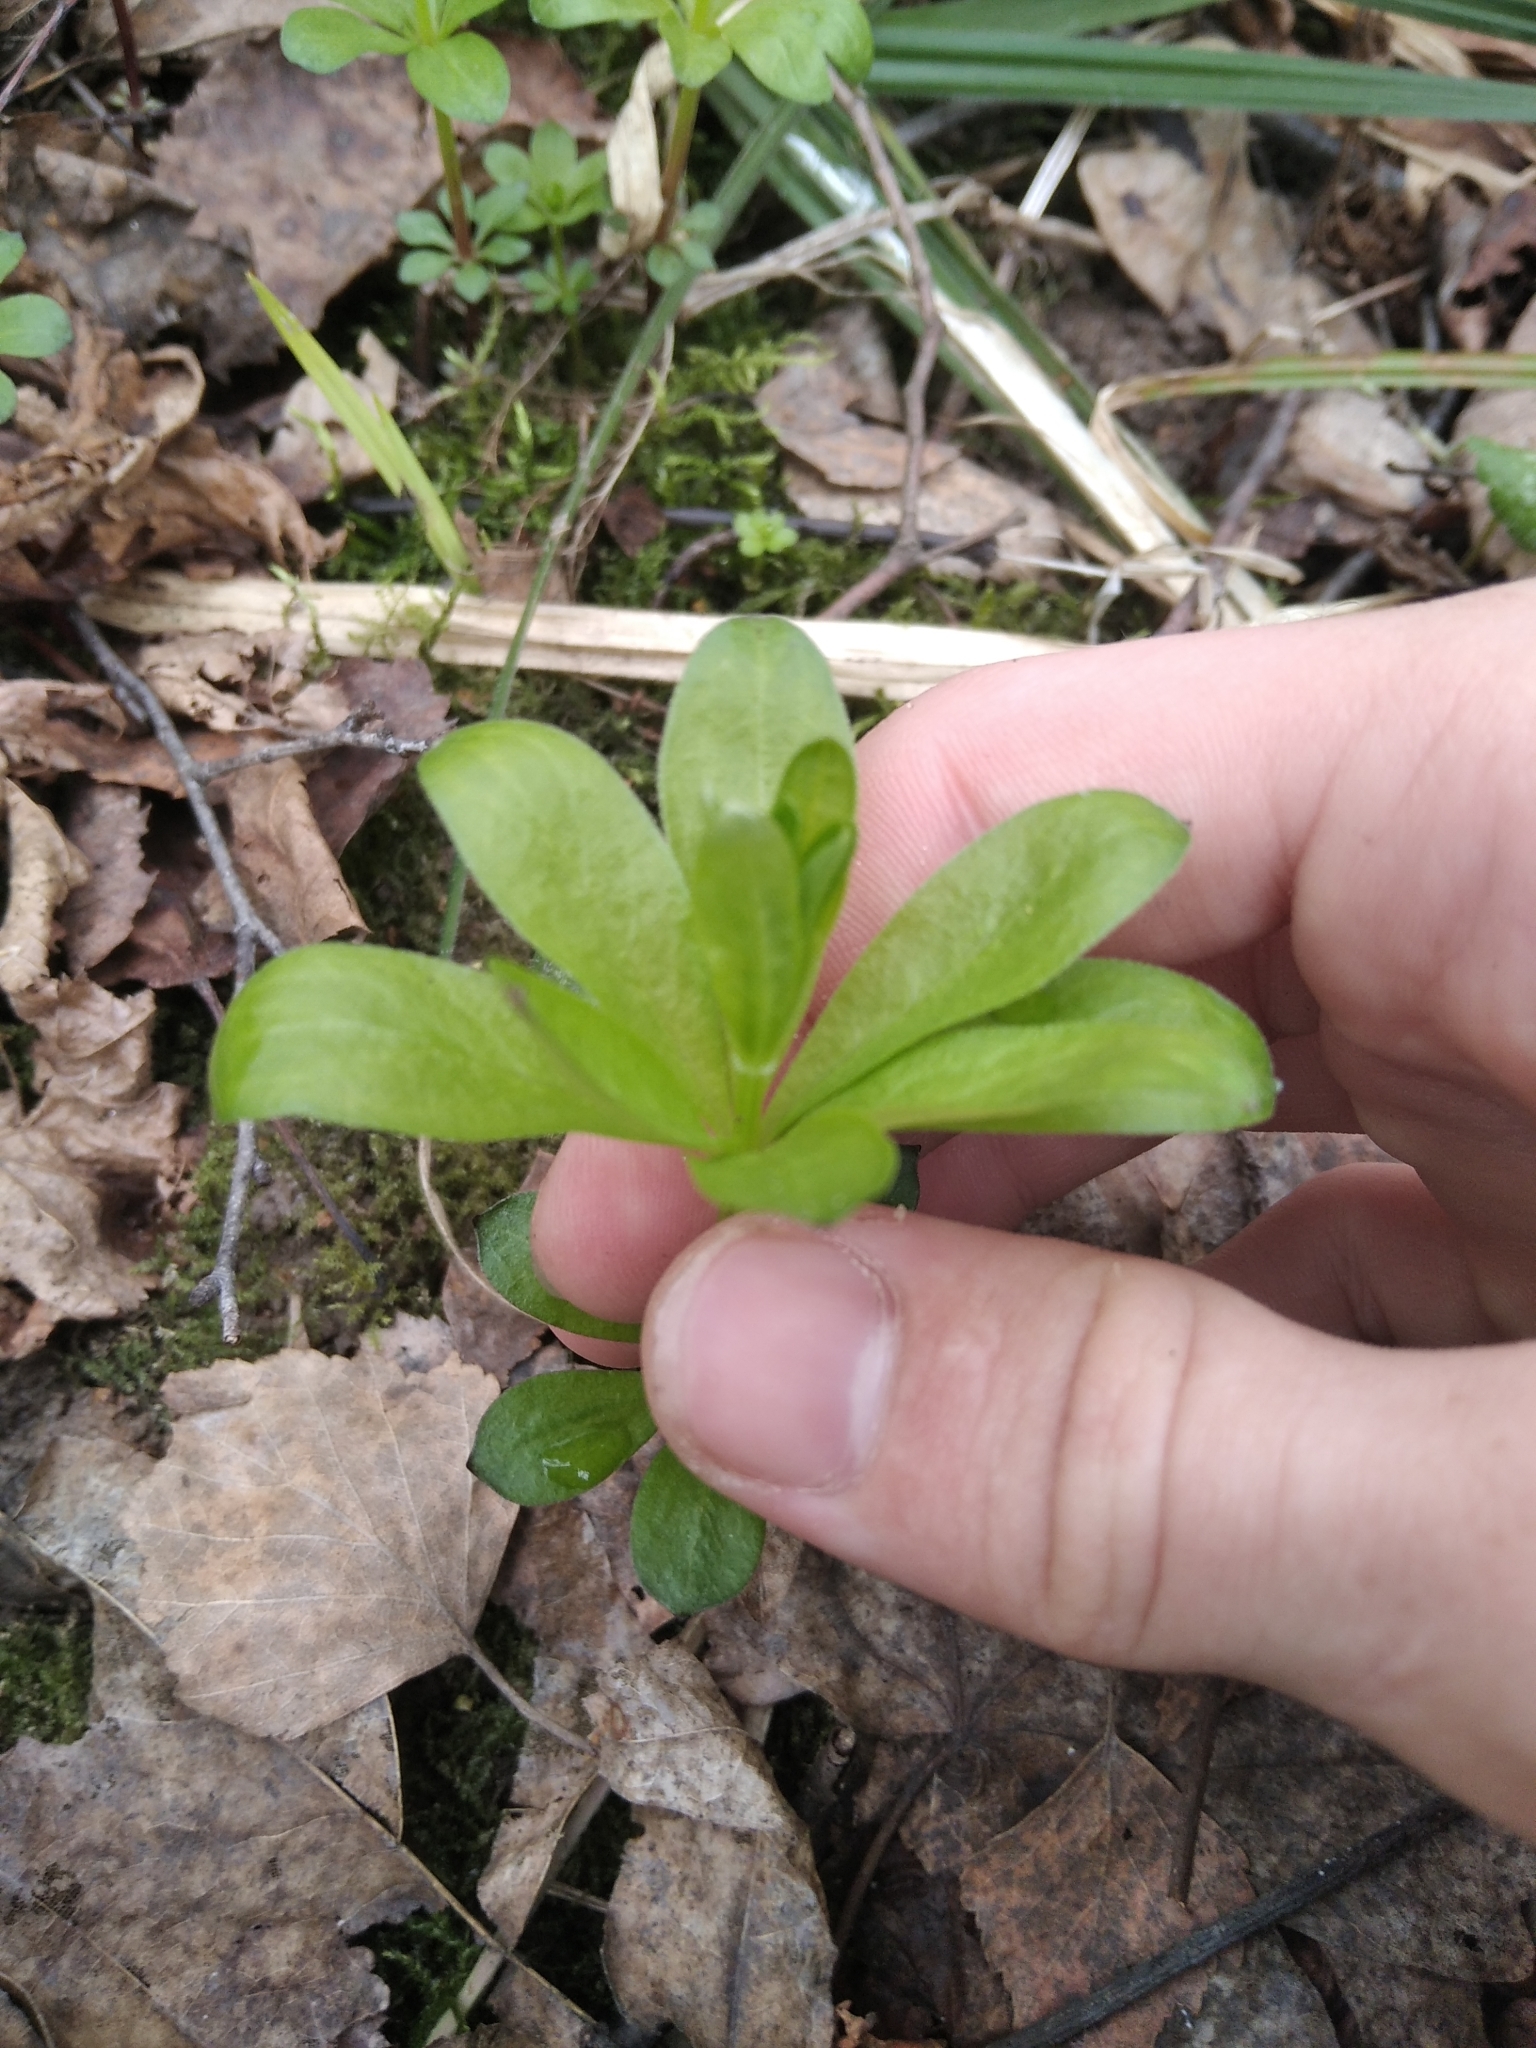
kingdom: Plantae
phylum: Tracheophyta
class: Magnoliopsida
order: Gentianales
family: Rubiaceae
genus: Galium
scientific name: Galium odoratum
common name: Sweet woodruff
